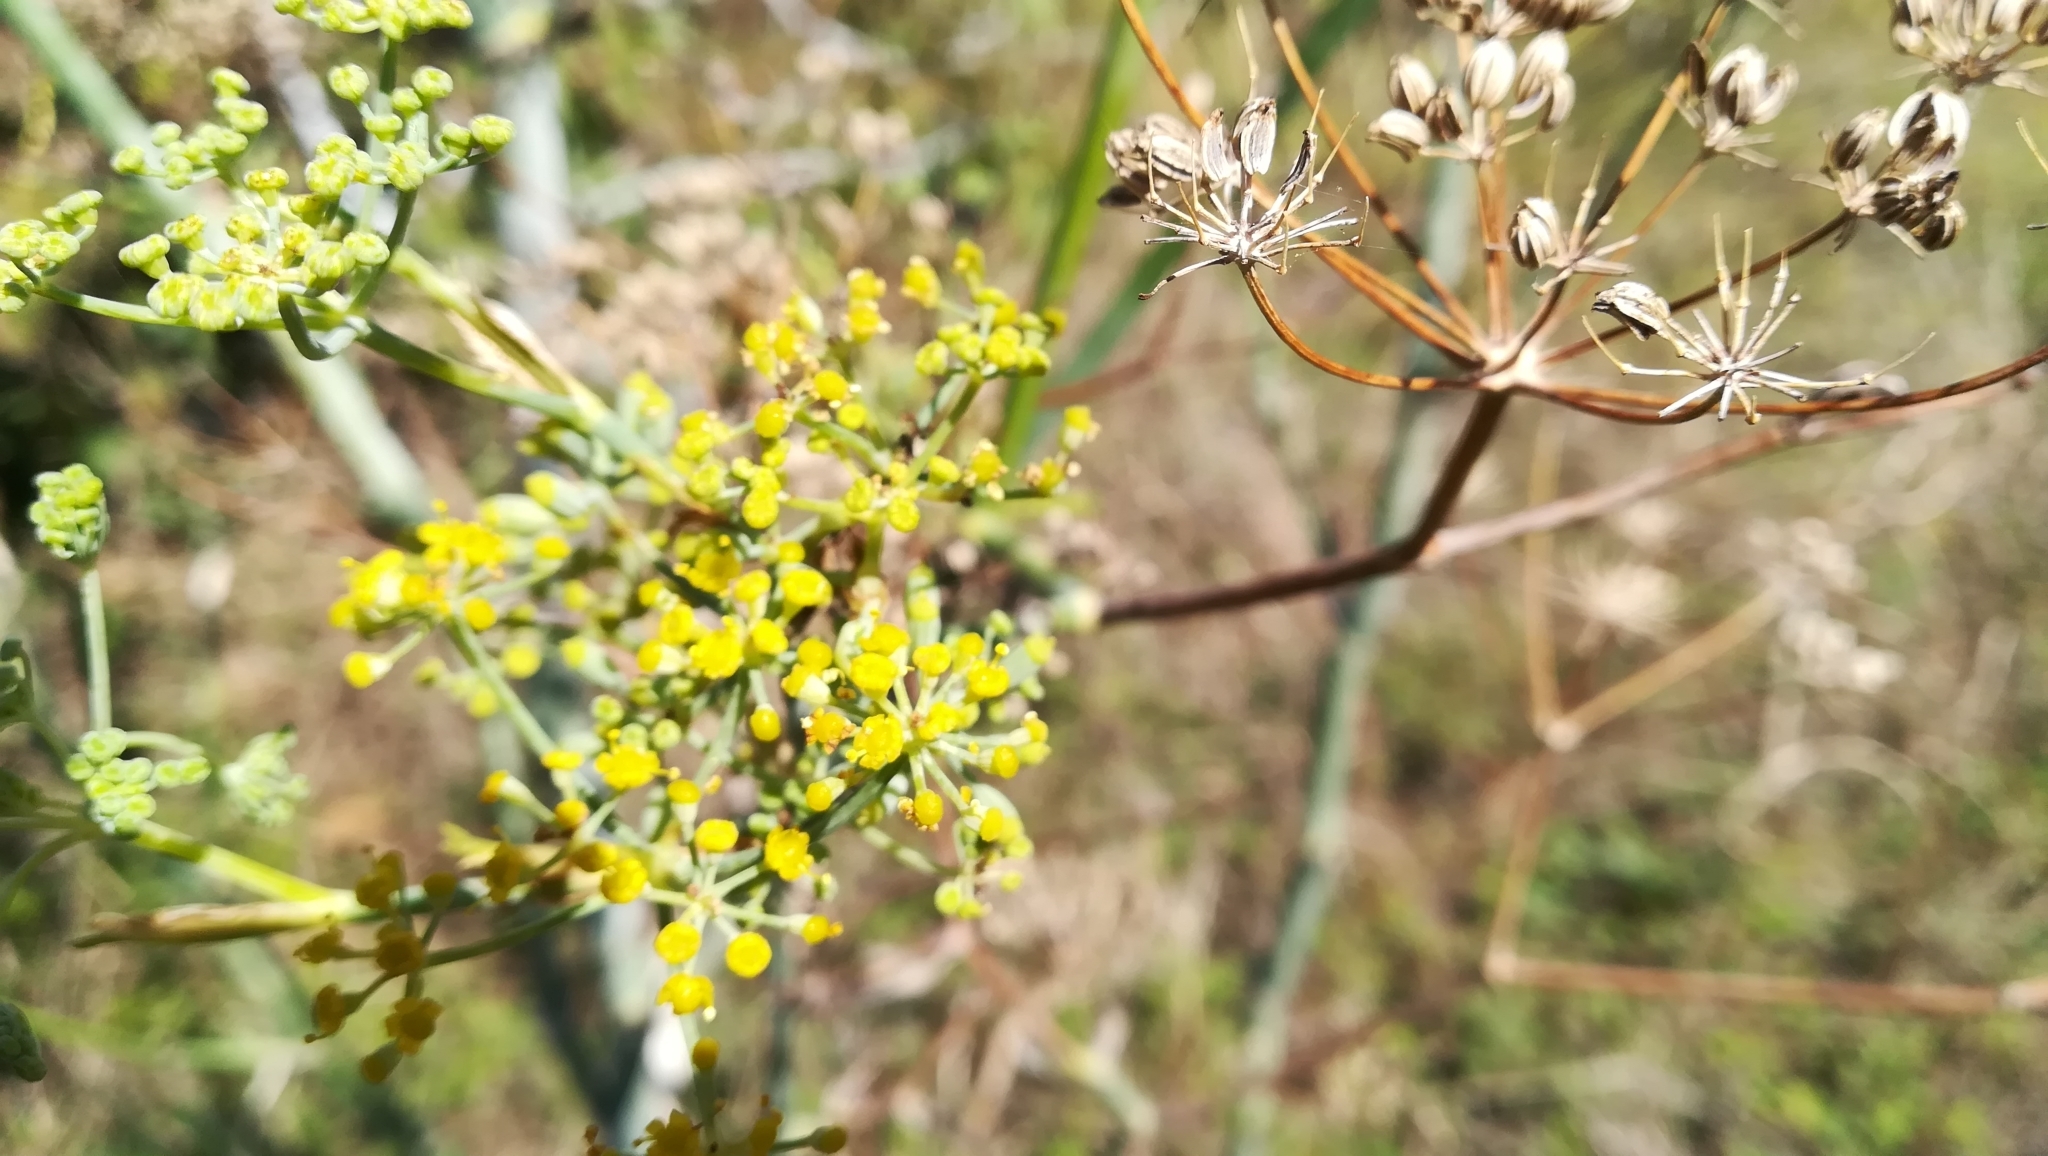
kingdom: Plantae
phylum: Tracheophyta
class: Magnoliopsida
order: Apiales
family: Apiaceae
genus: Foeniculum
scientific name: Foeniculum vulgare
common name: Fennel
